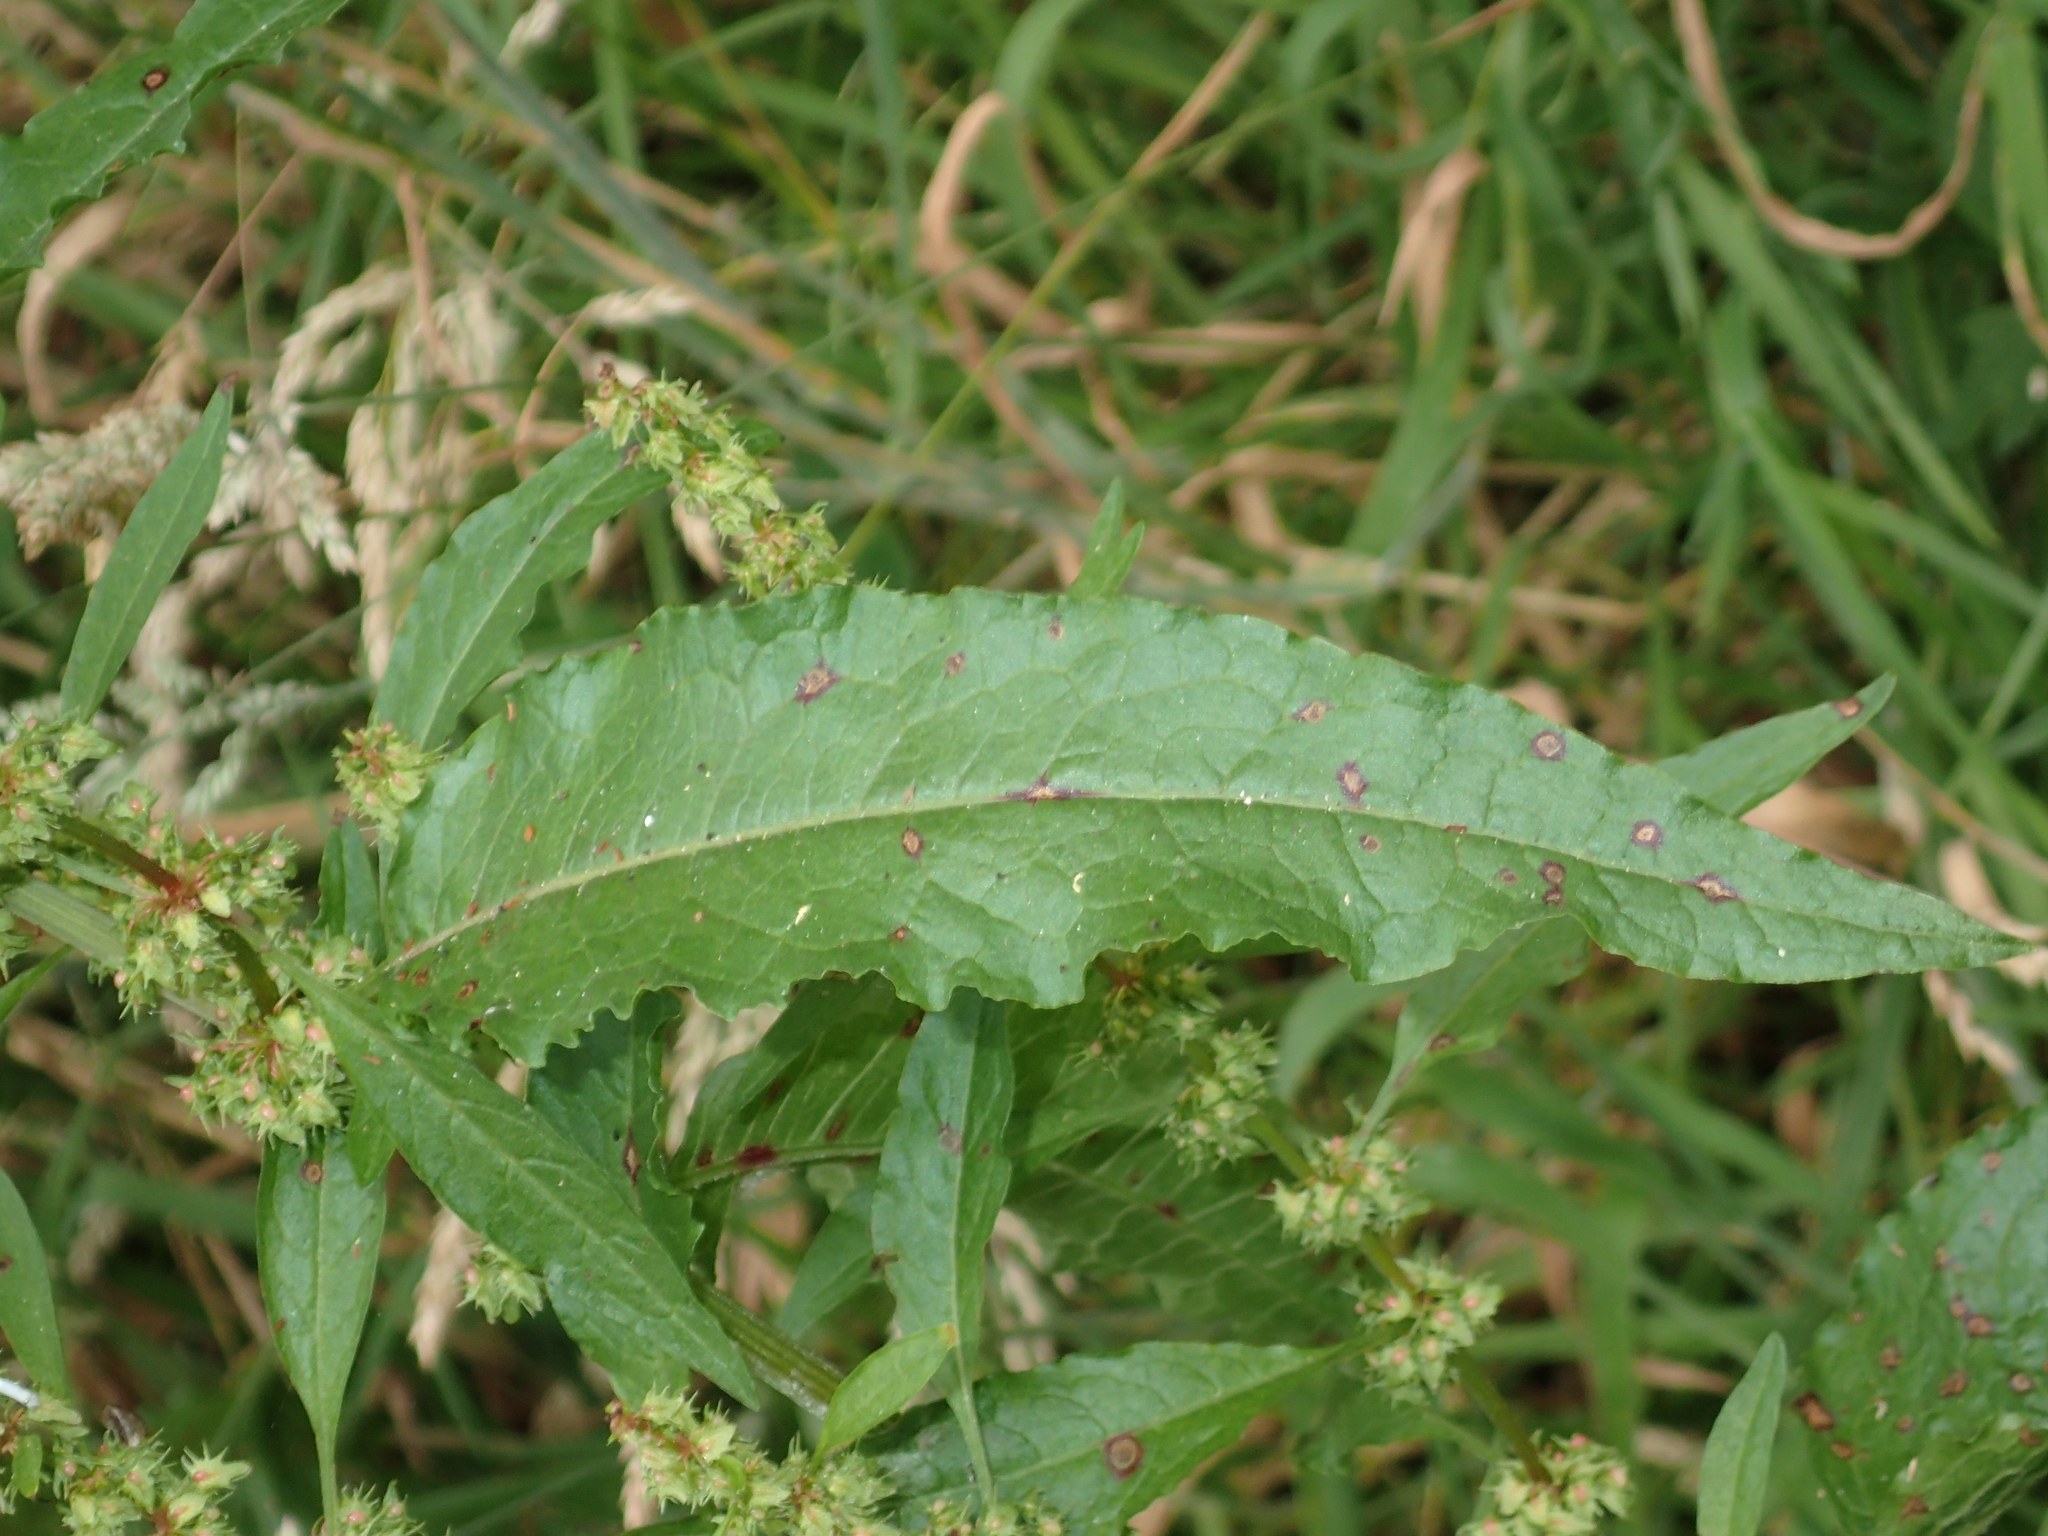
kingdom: Plantae
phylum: Tracheophyta
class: Magnoliopsida
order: Caryophyllales
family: Polygonaceae
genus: Rumex
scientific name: Rumex obtusifolius
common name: Bitter dock
